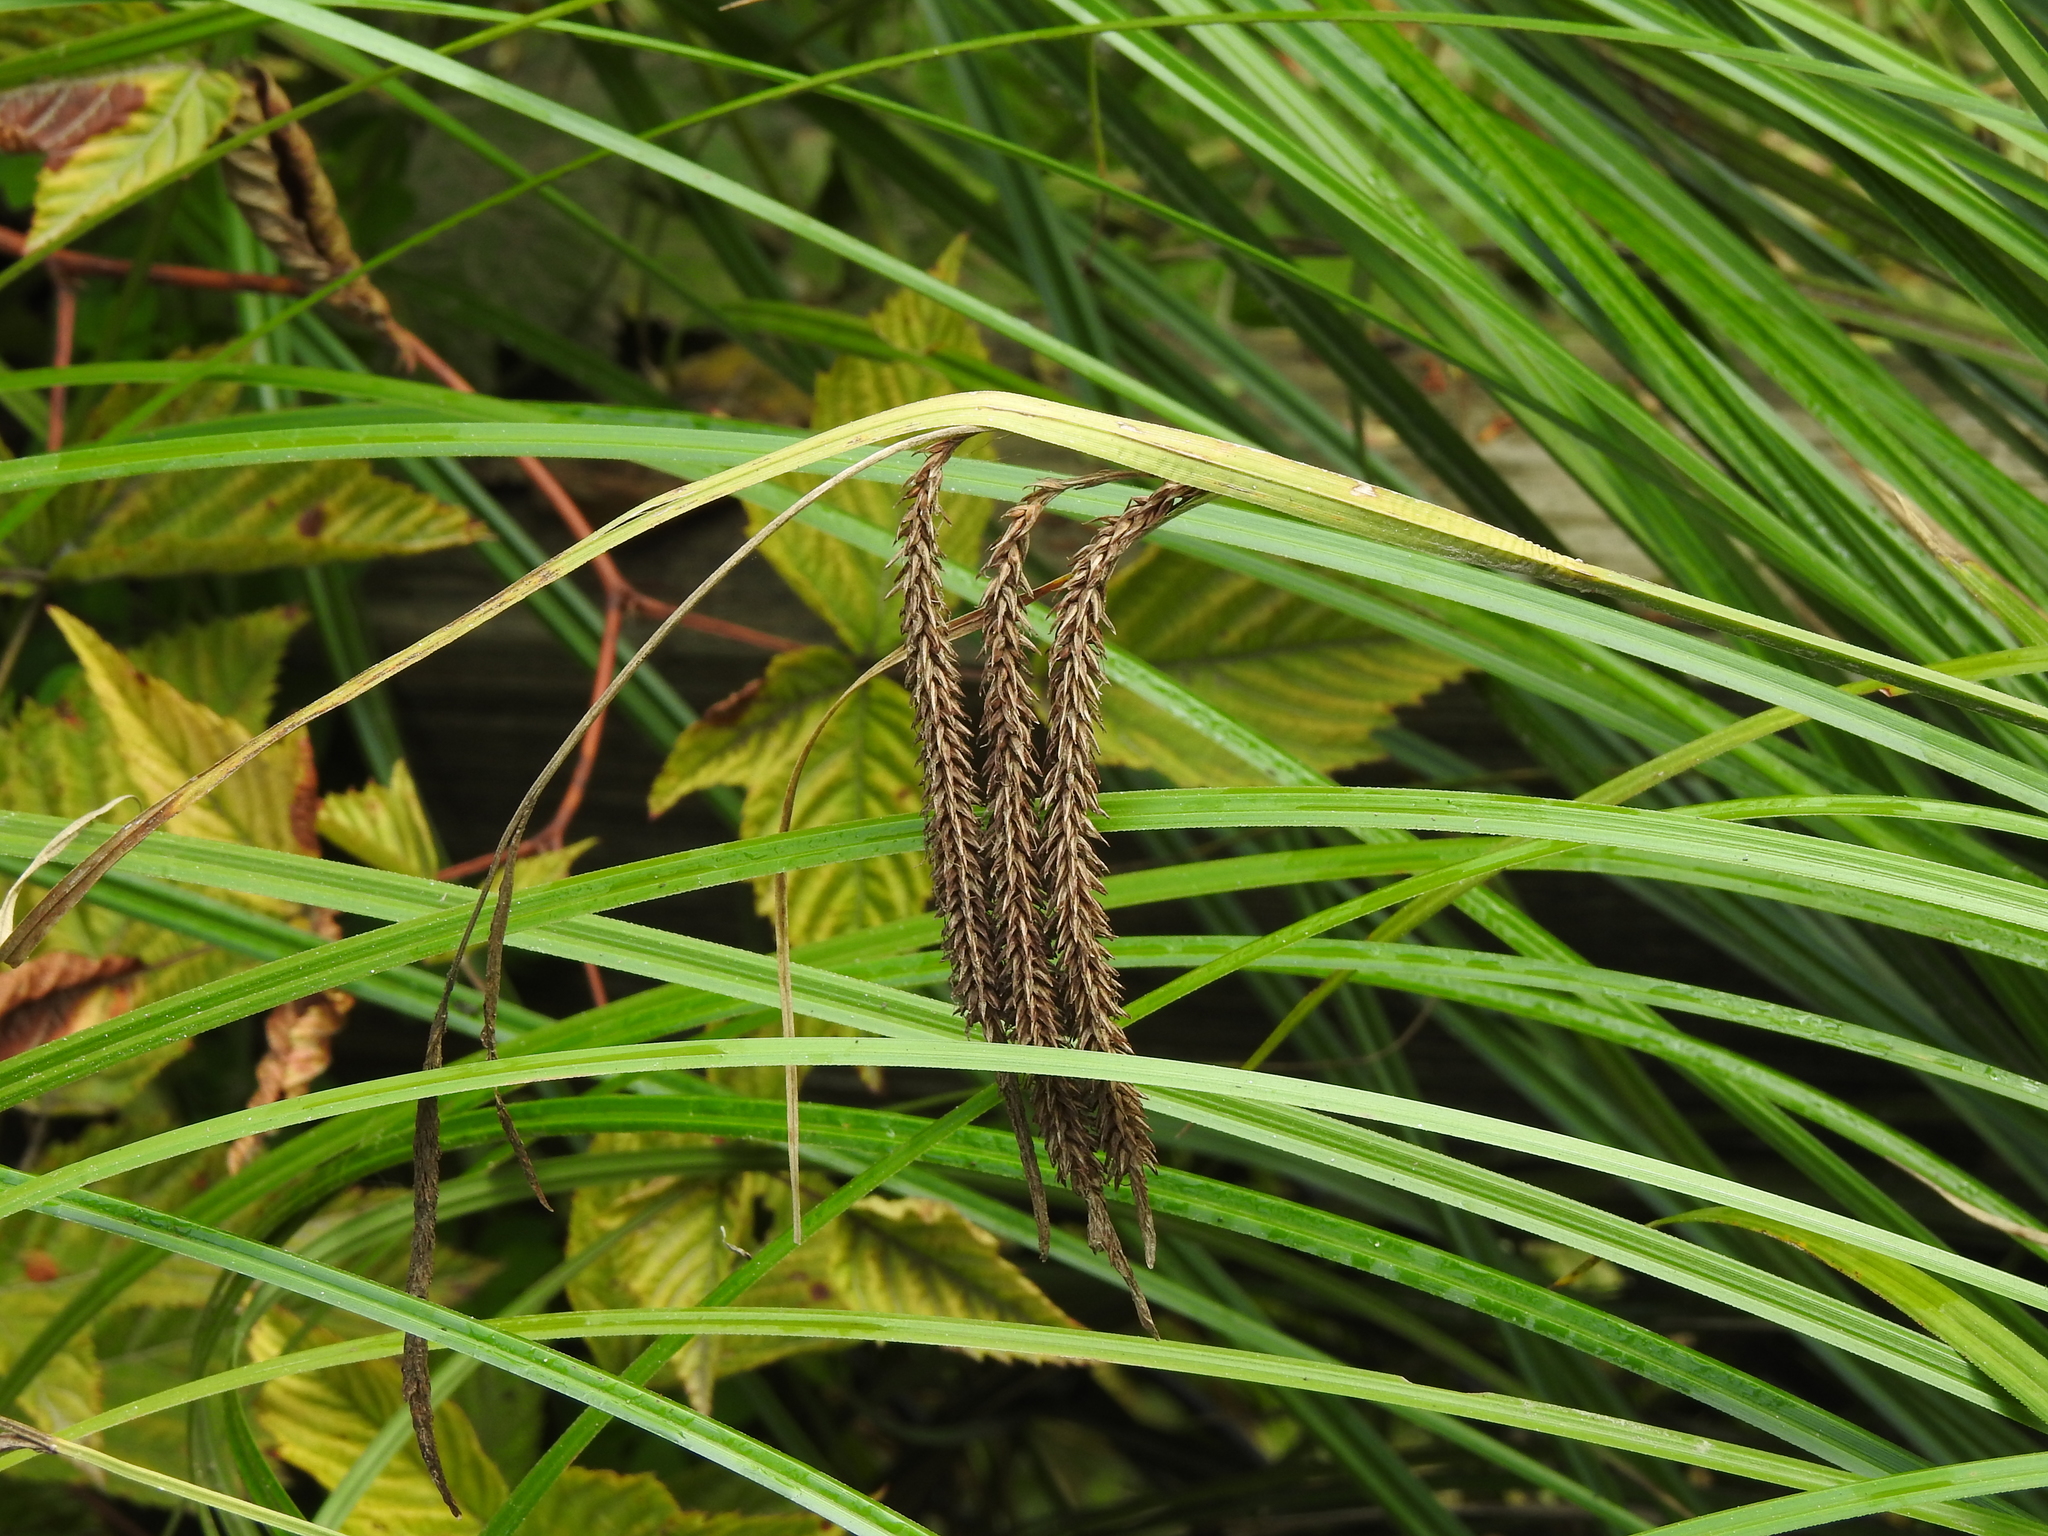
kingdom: Plantae
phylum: Tracheophyta
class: Liliopsida
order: Poales
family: Cyperaceae
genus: Carex
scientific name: Carex obnupta
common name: Slough sedge
